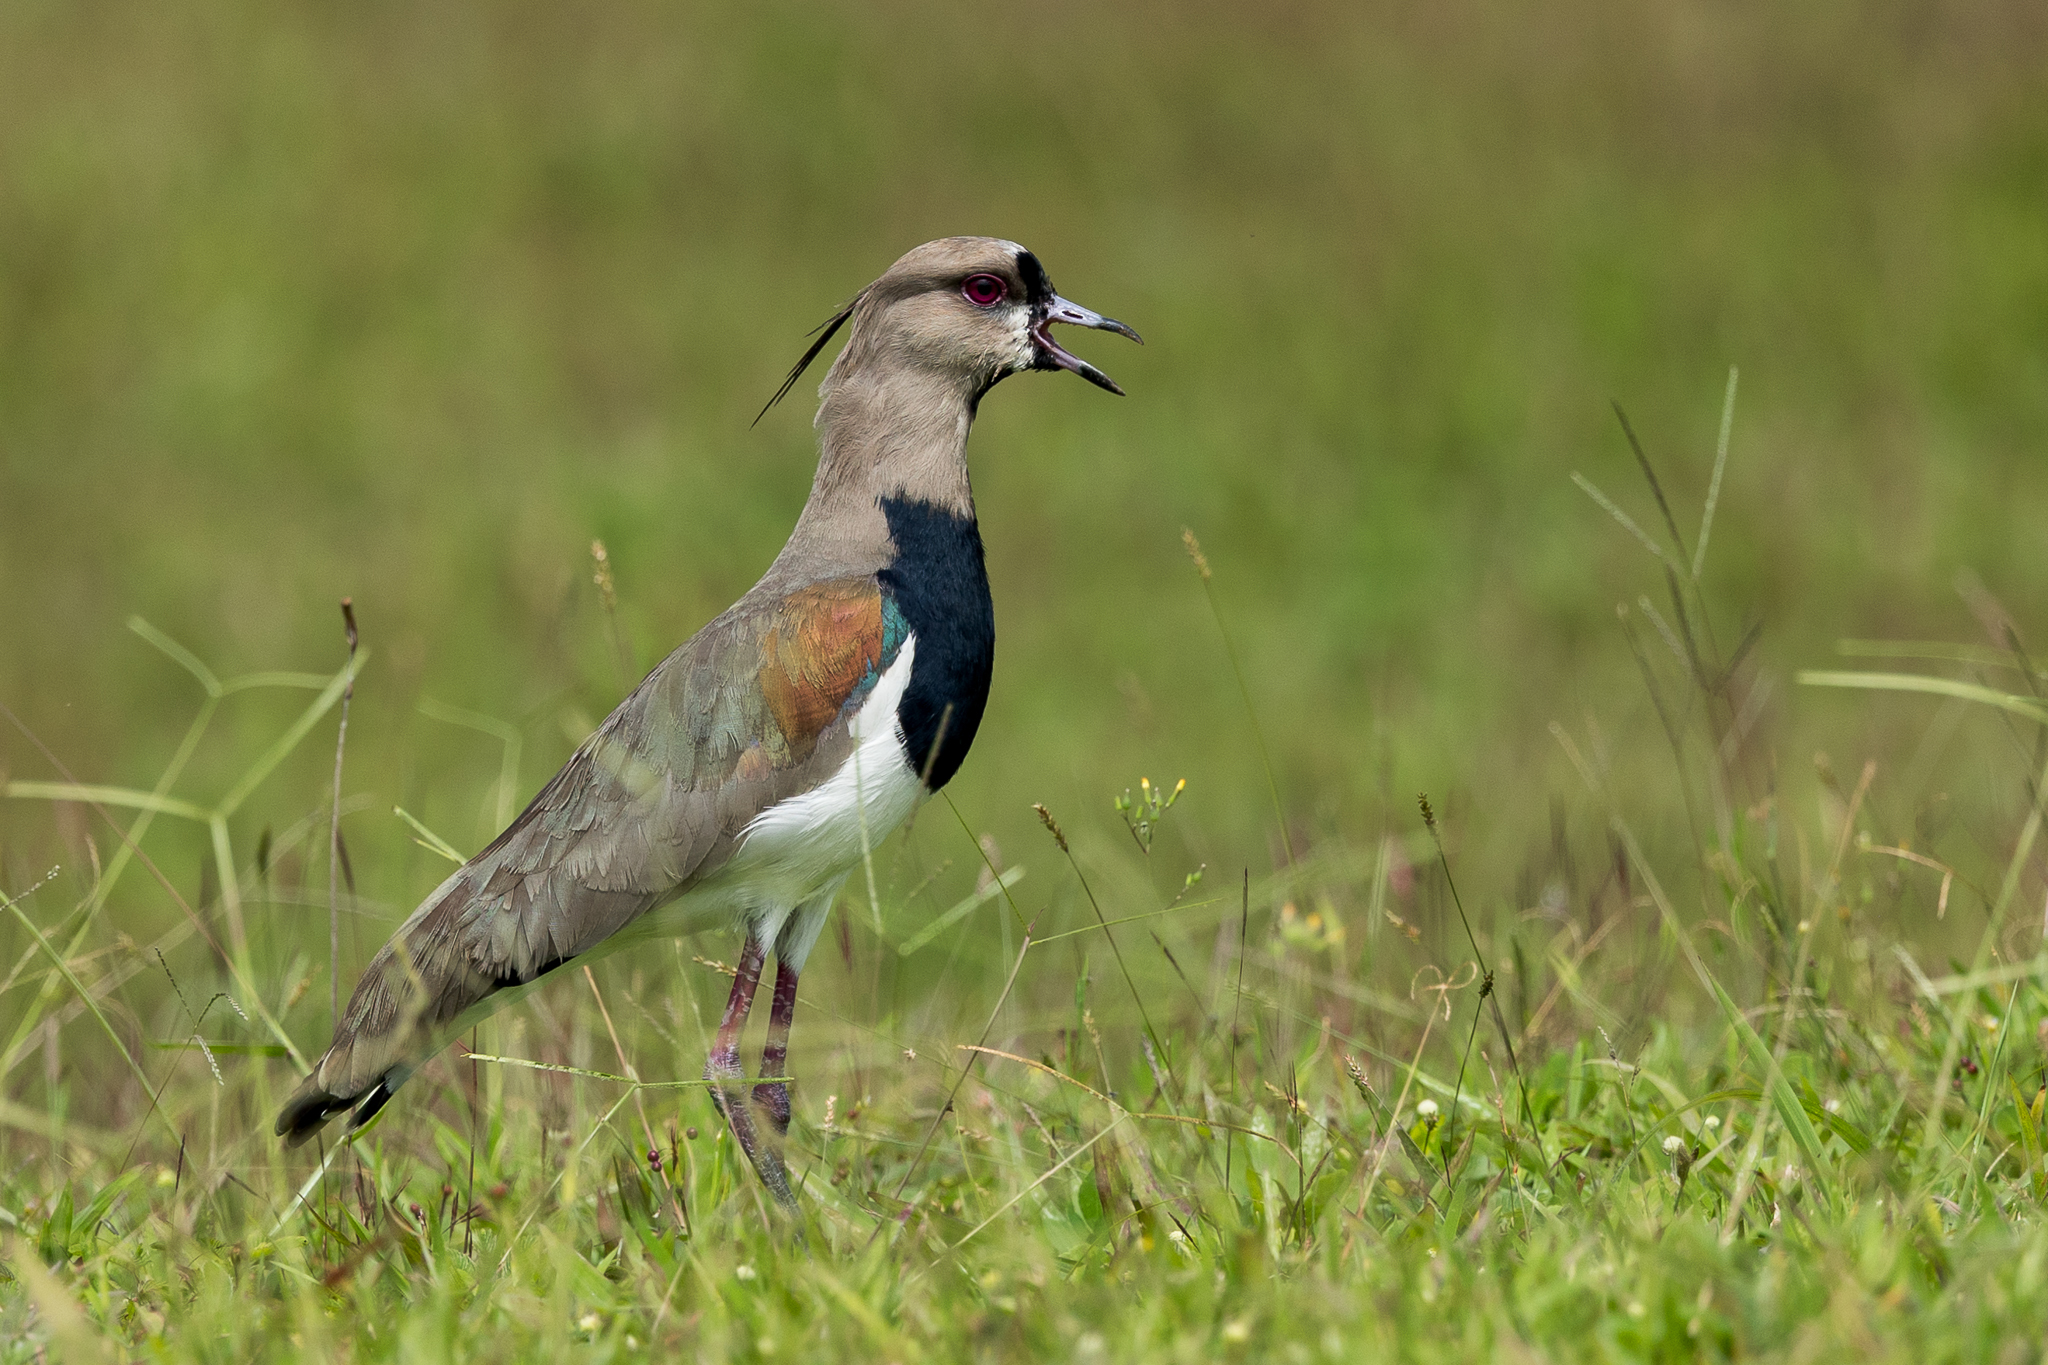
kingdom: Animalia
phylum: Chordata
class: Aves
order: Charadriiformes
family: Charadriidae
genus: Vanellus
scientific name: Vanellus chilensis
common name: Southern lapwing
